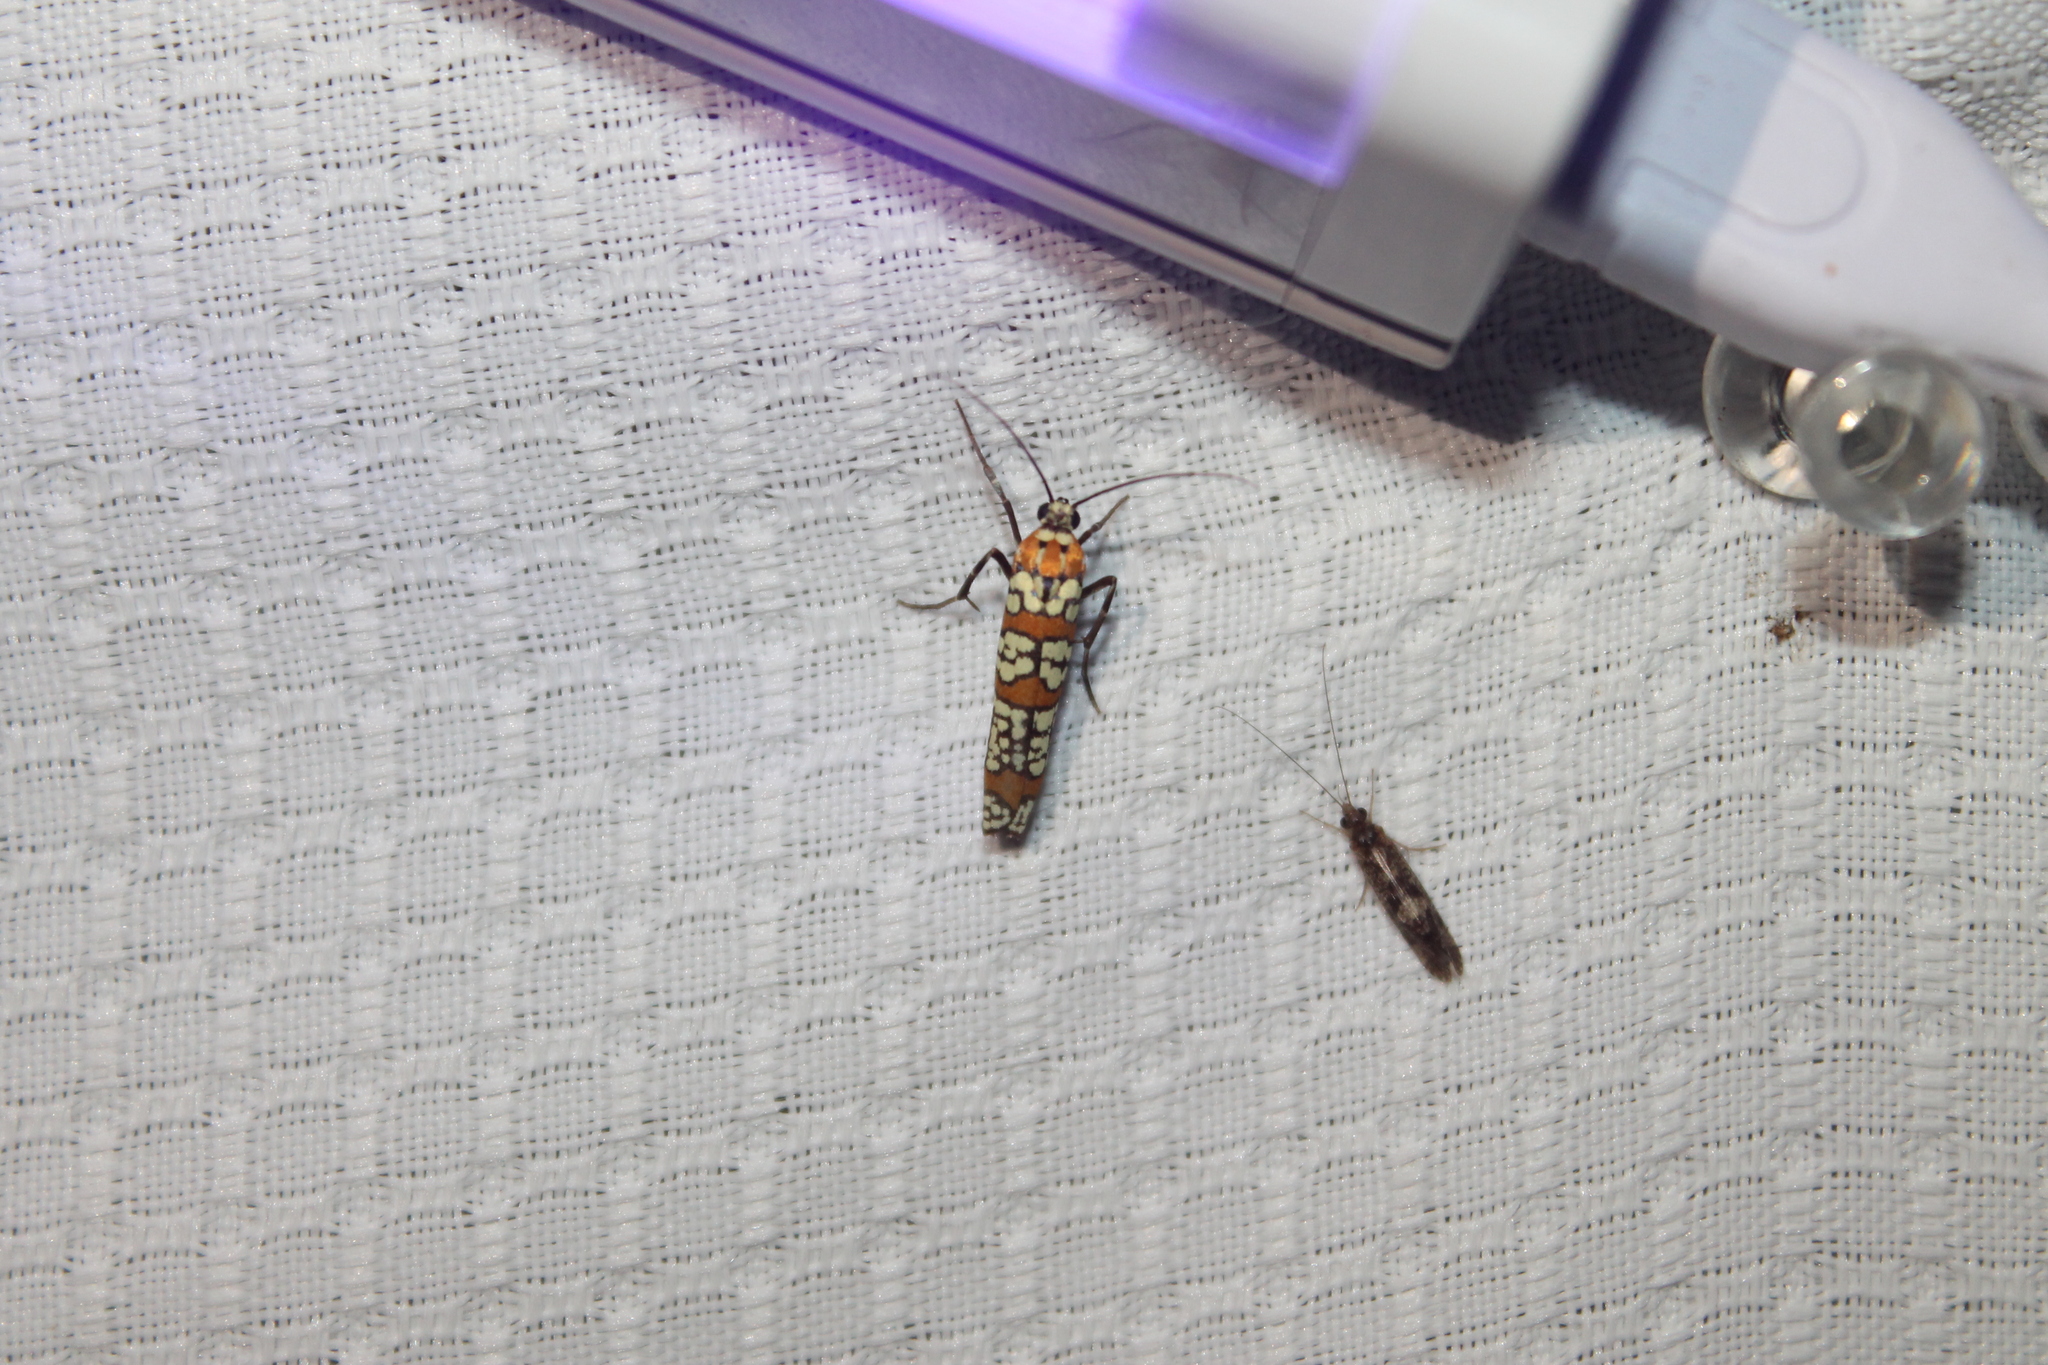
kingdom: Animalia
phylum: Arthropoda
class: Insecta
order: Lepidoptera
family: Attevidae
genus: Atteva
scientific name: Atteva punctella
